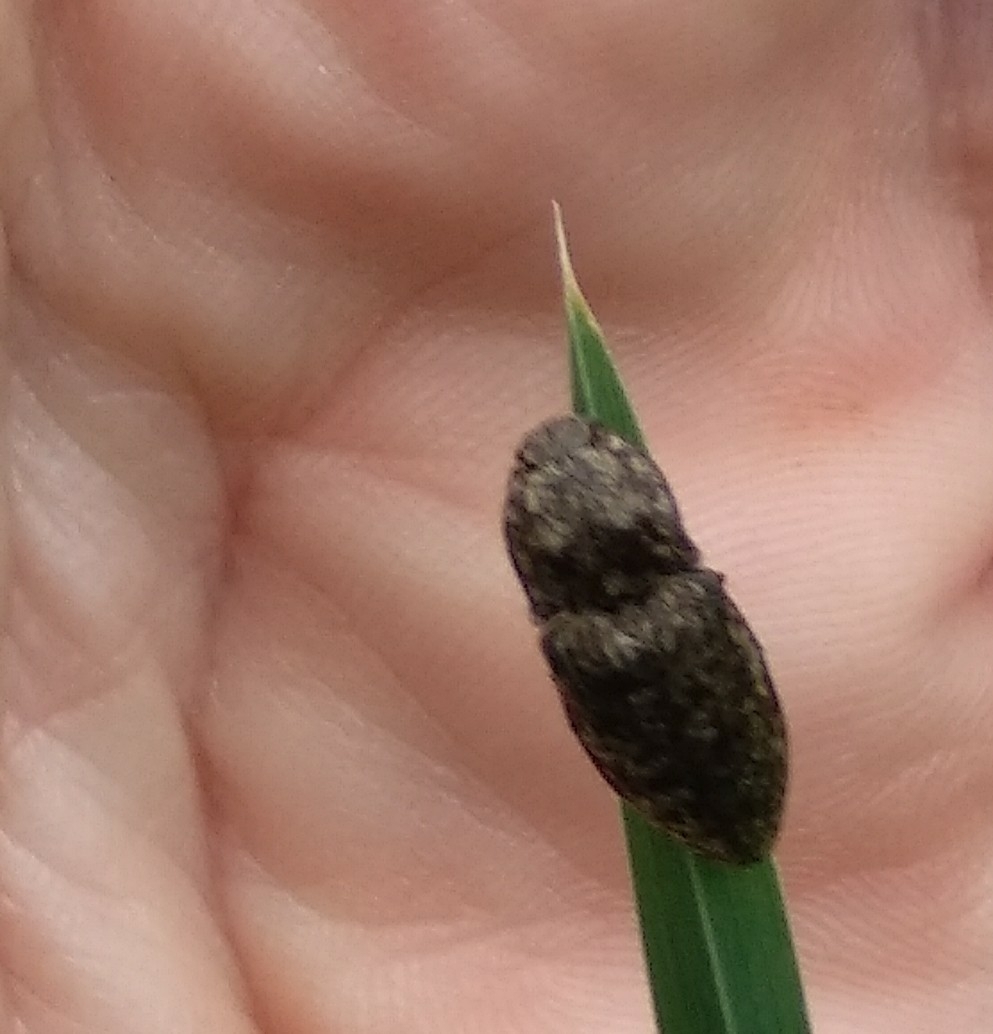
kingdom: Animalia
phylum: Arthropoda
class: Insecta
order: Coleoptera
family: Elateridae
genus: Agrypnus
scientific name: Agrypnus murinus
